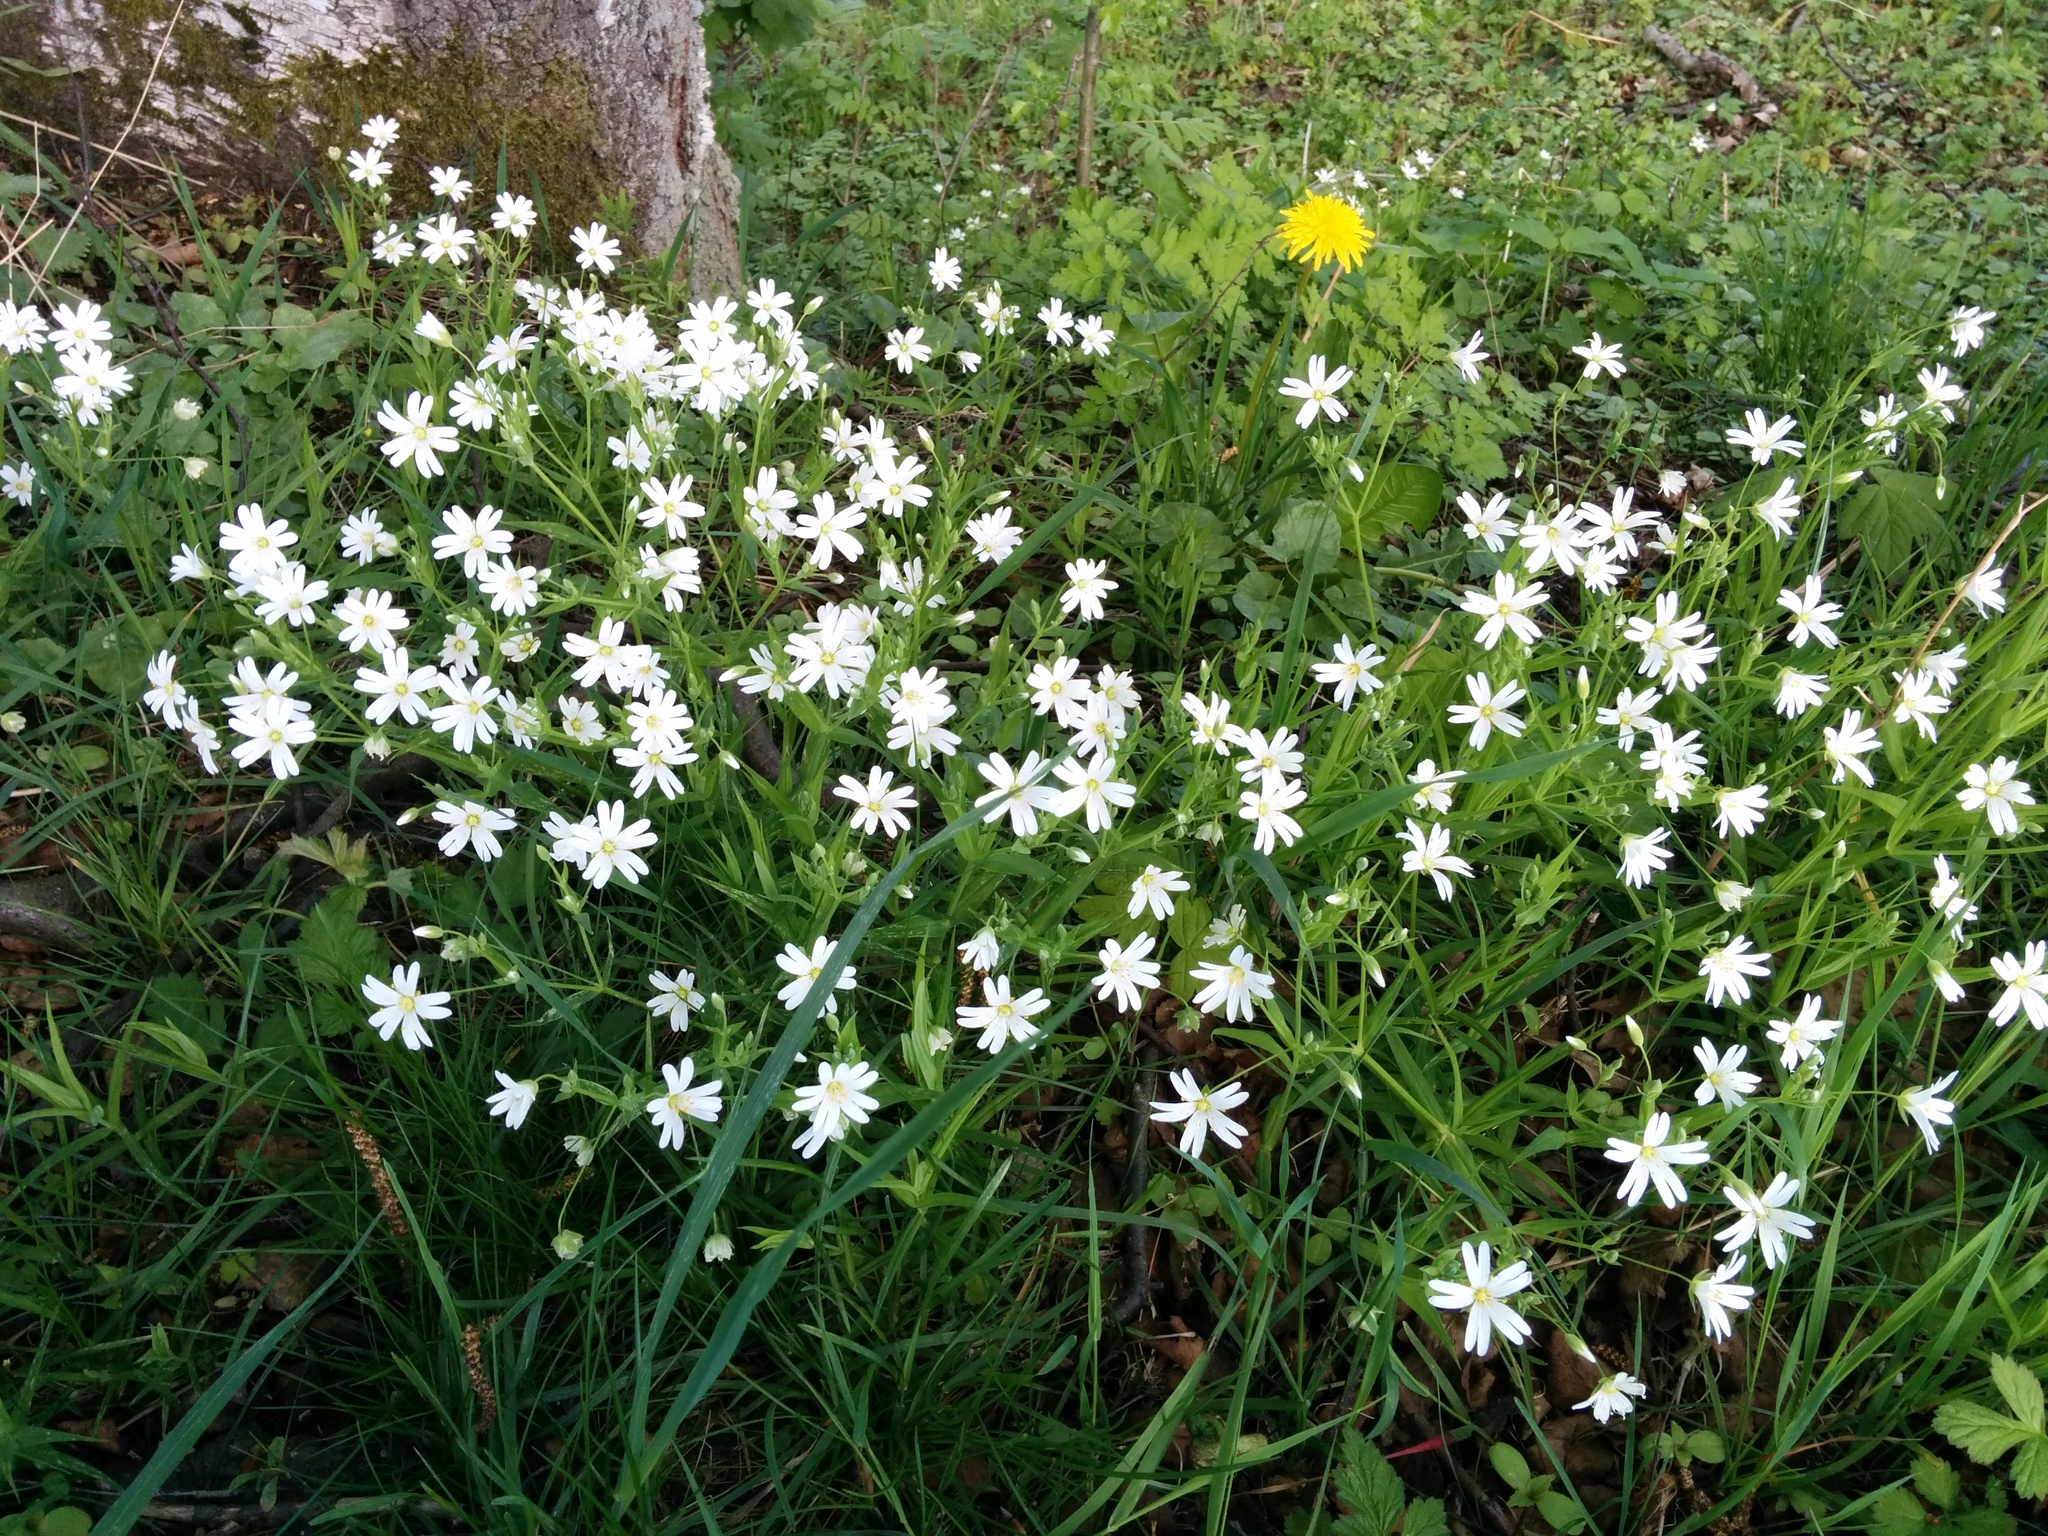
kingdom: Plantae
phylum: Tracheophyta
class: Magnoliopsida
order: Caryophyllales
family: Caryophyllaceae
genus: Rabelera
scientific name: Rabelera holostea
